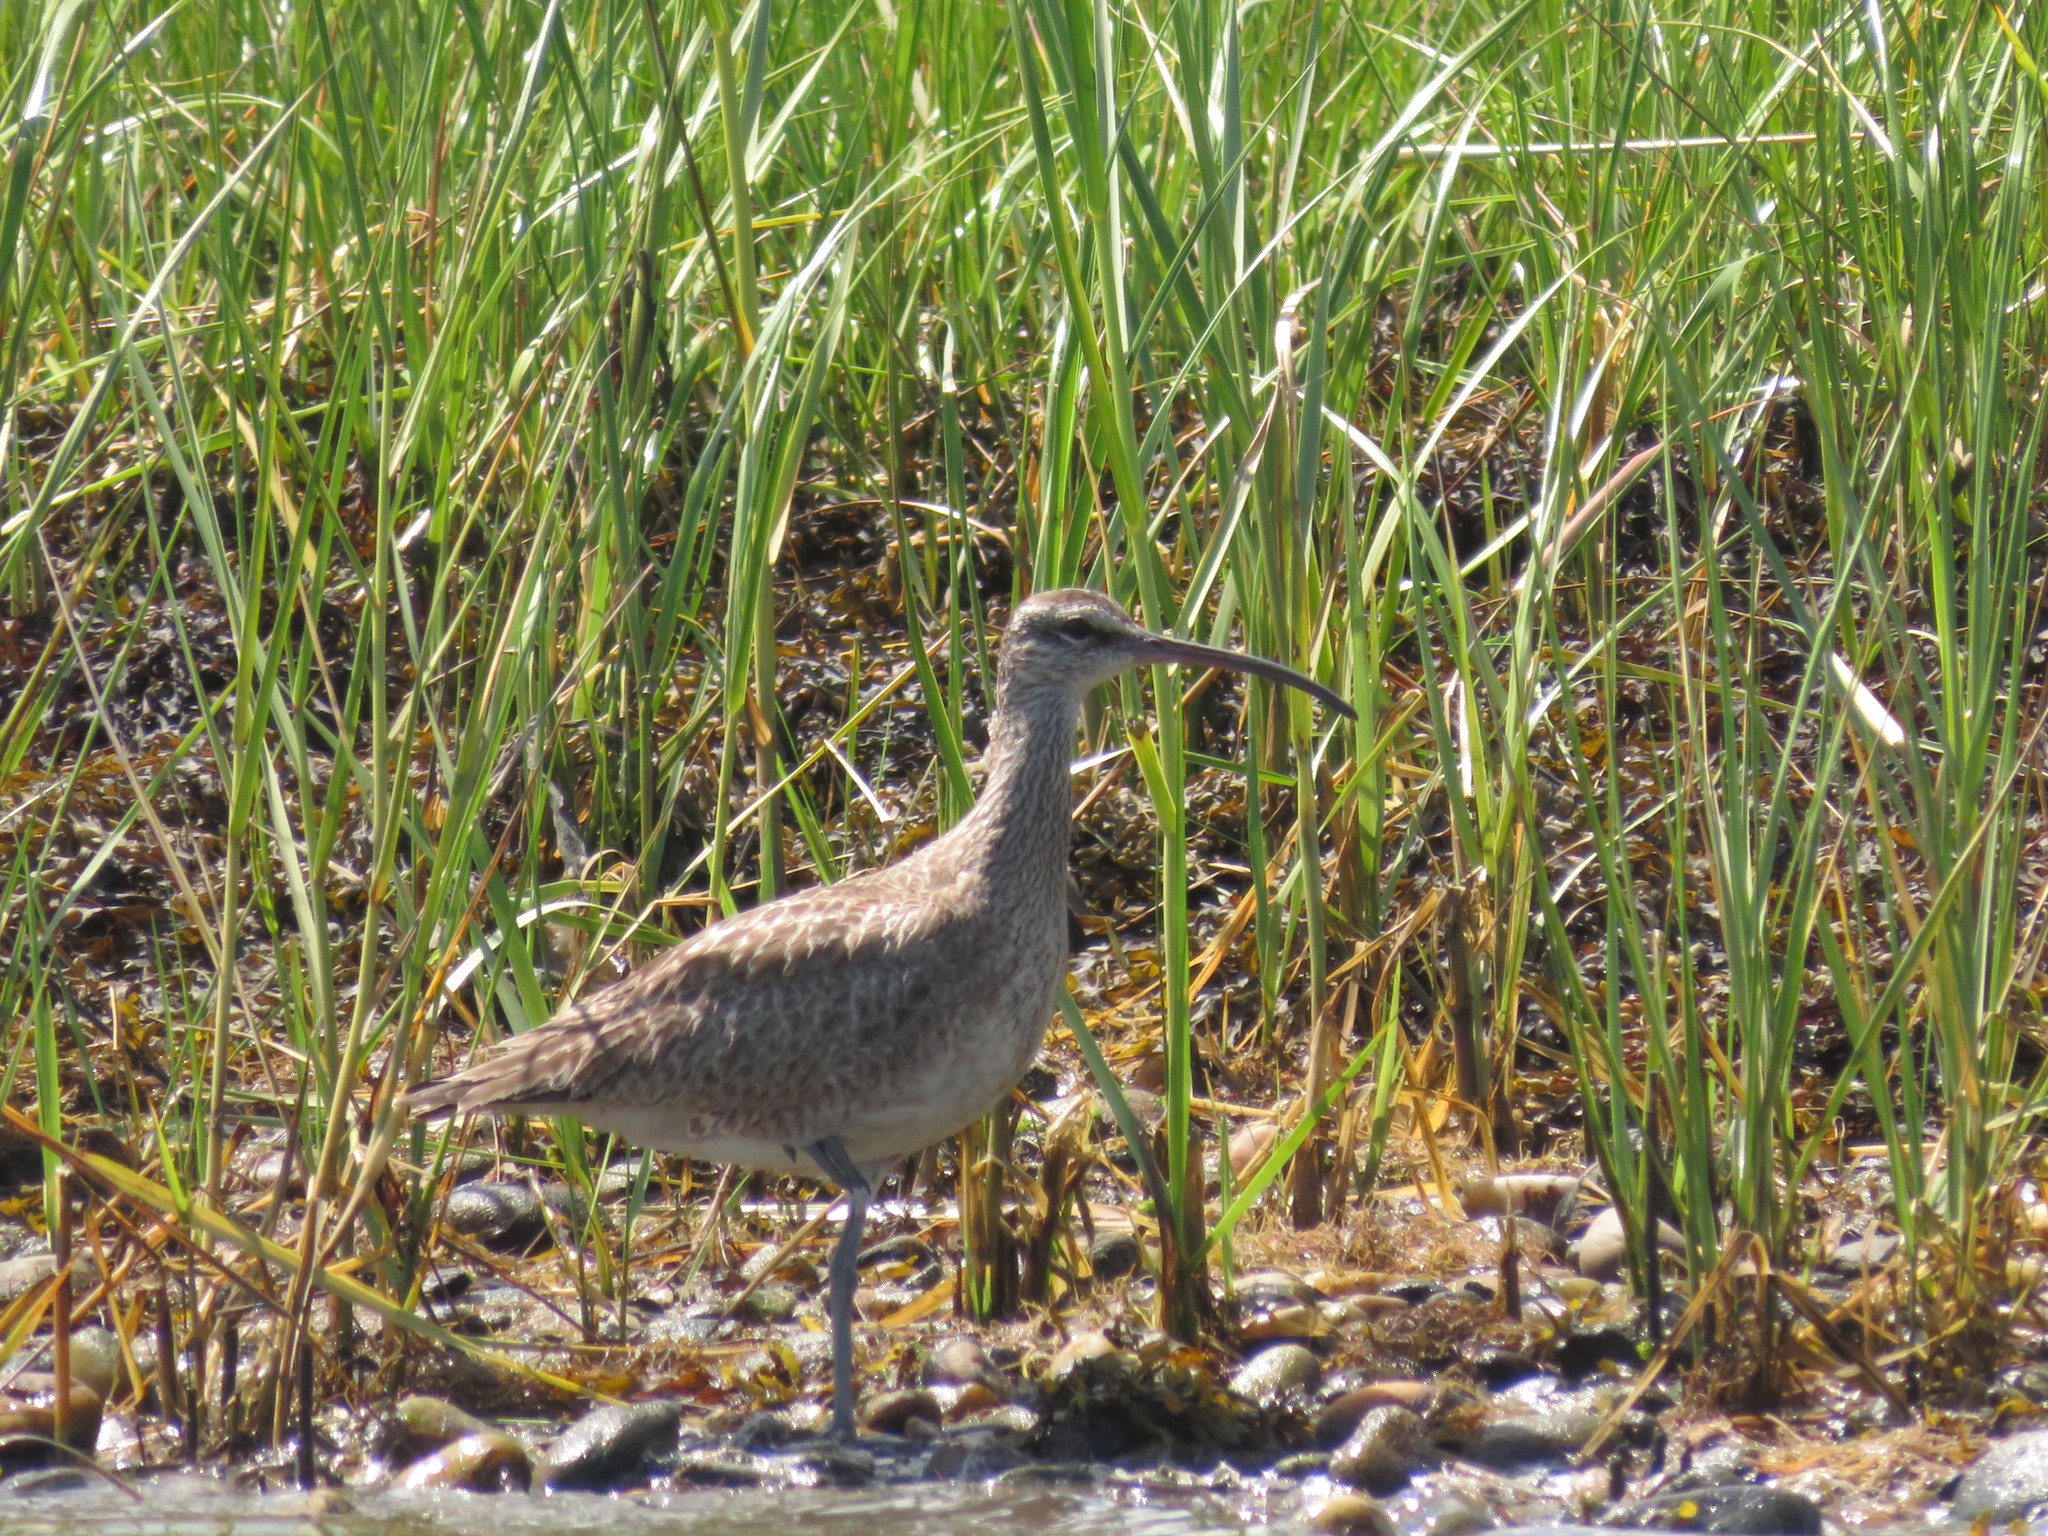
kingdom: Animalia
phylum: Chordata
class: Aves
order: Charadriiformes
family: Scolopacidae
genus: Numenius
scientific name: Numenius phaeopus
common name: Whimbrel
